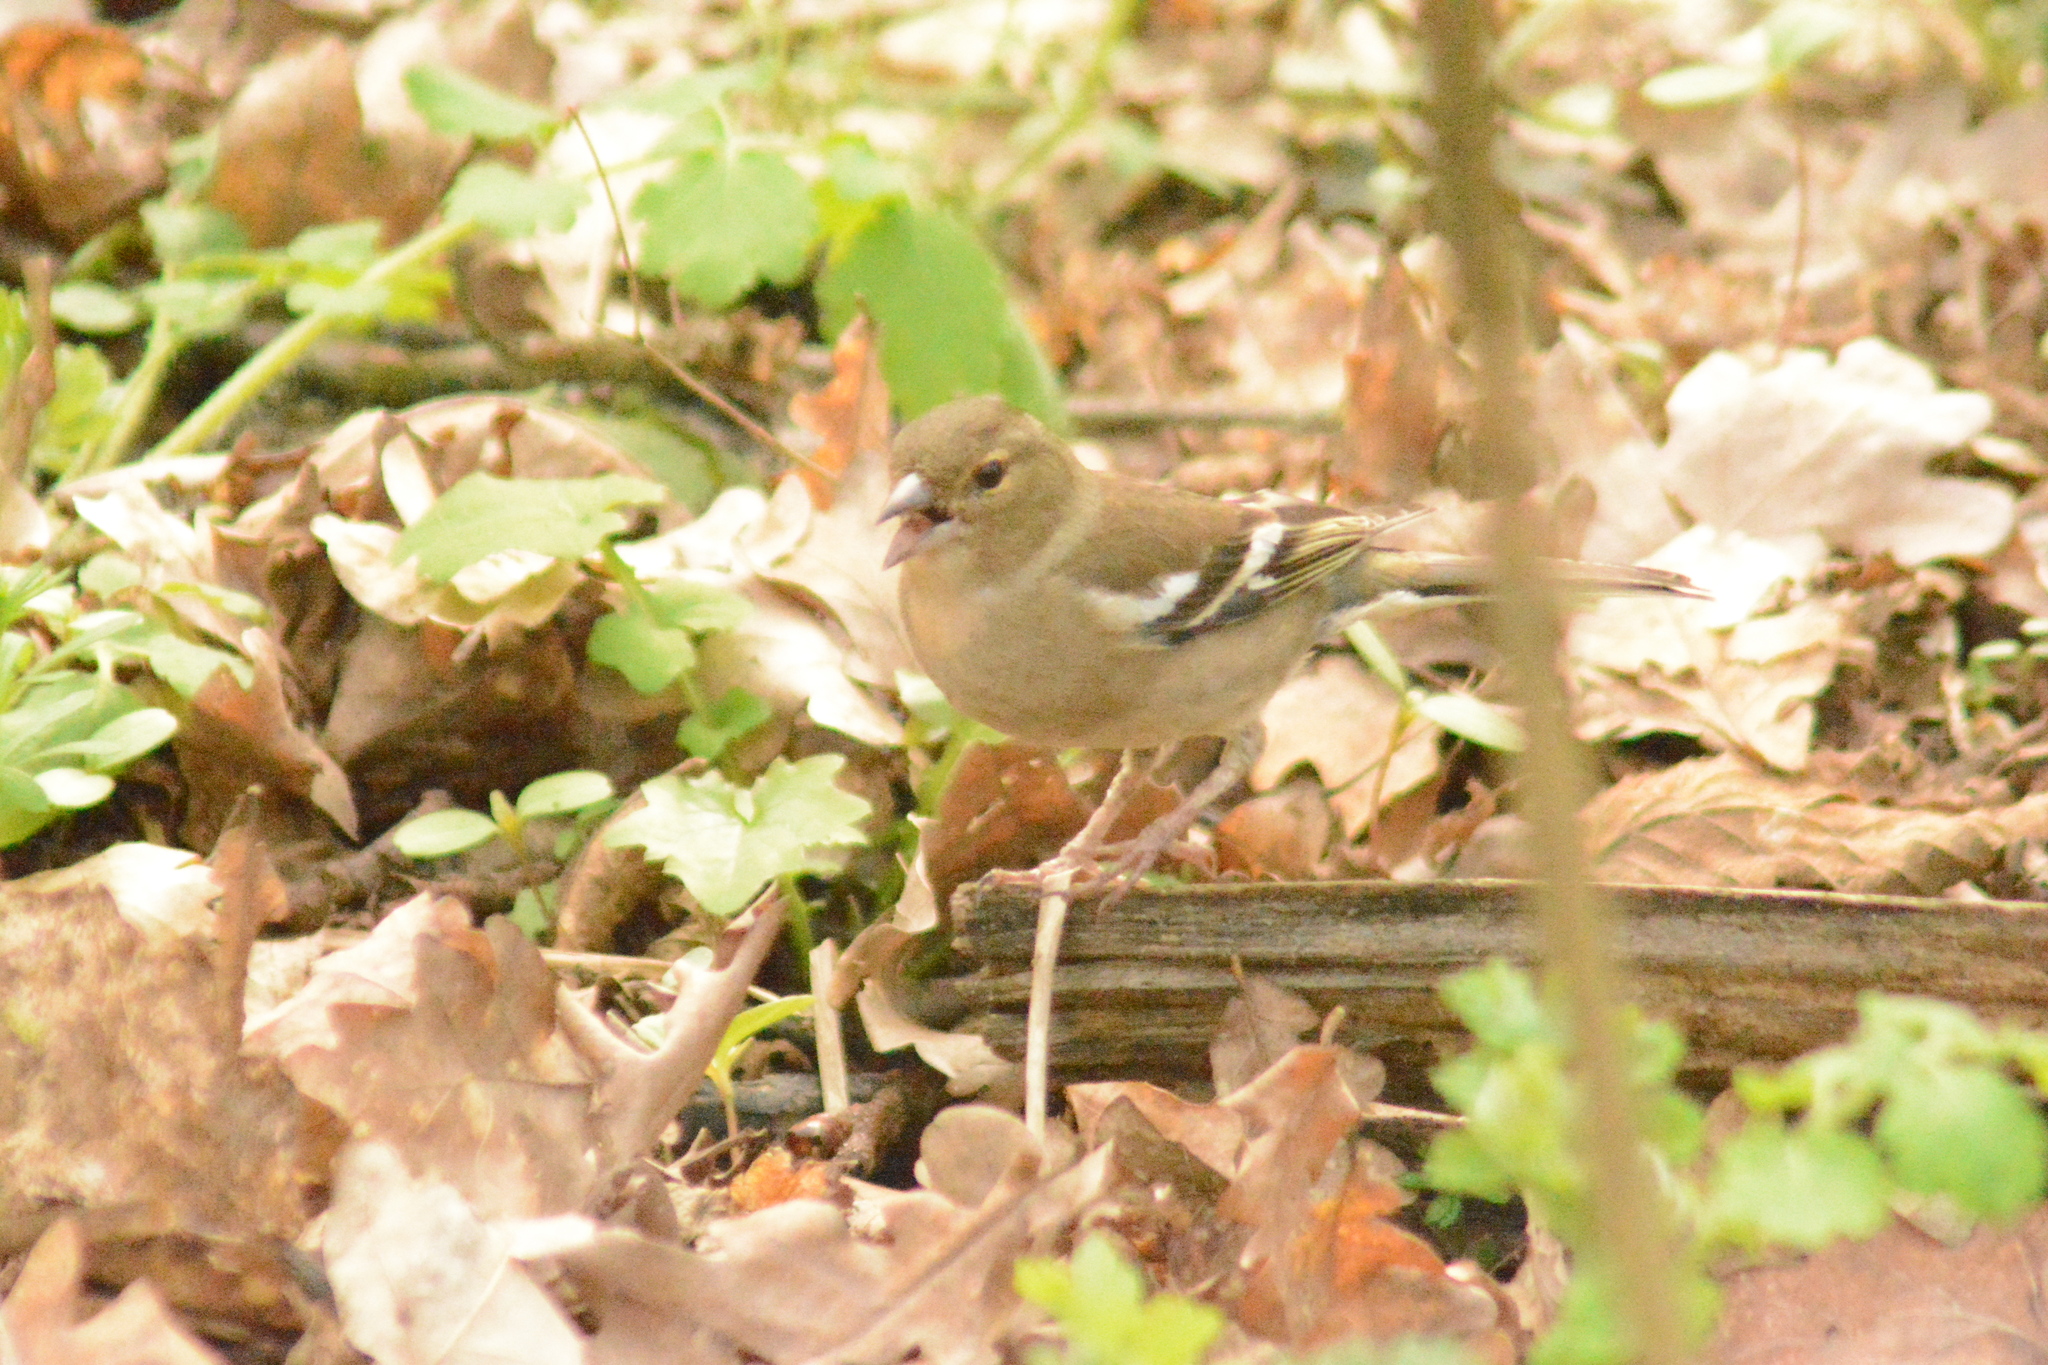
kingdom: Animalia
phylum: Chordata
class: Aves
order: Passeriformes
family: Fringillidae
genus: Fringilla
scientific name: Fringilla coelebs
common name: Common chaffinch
